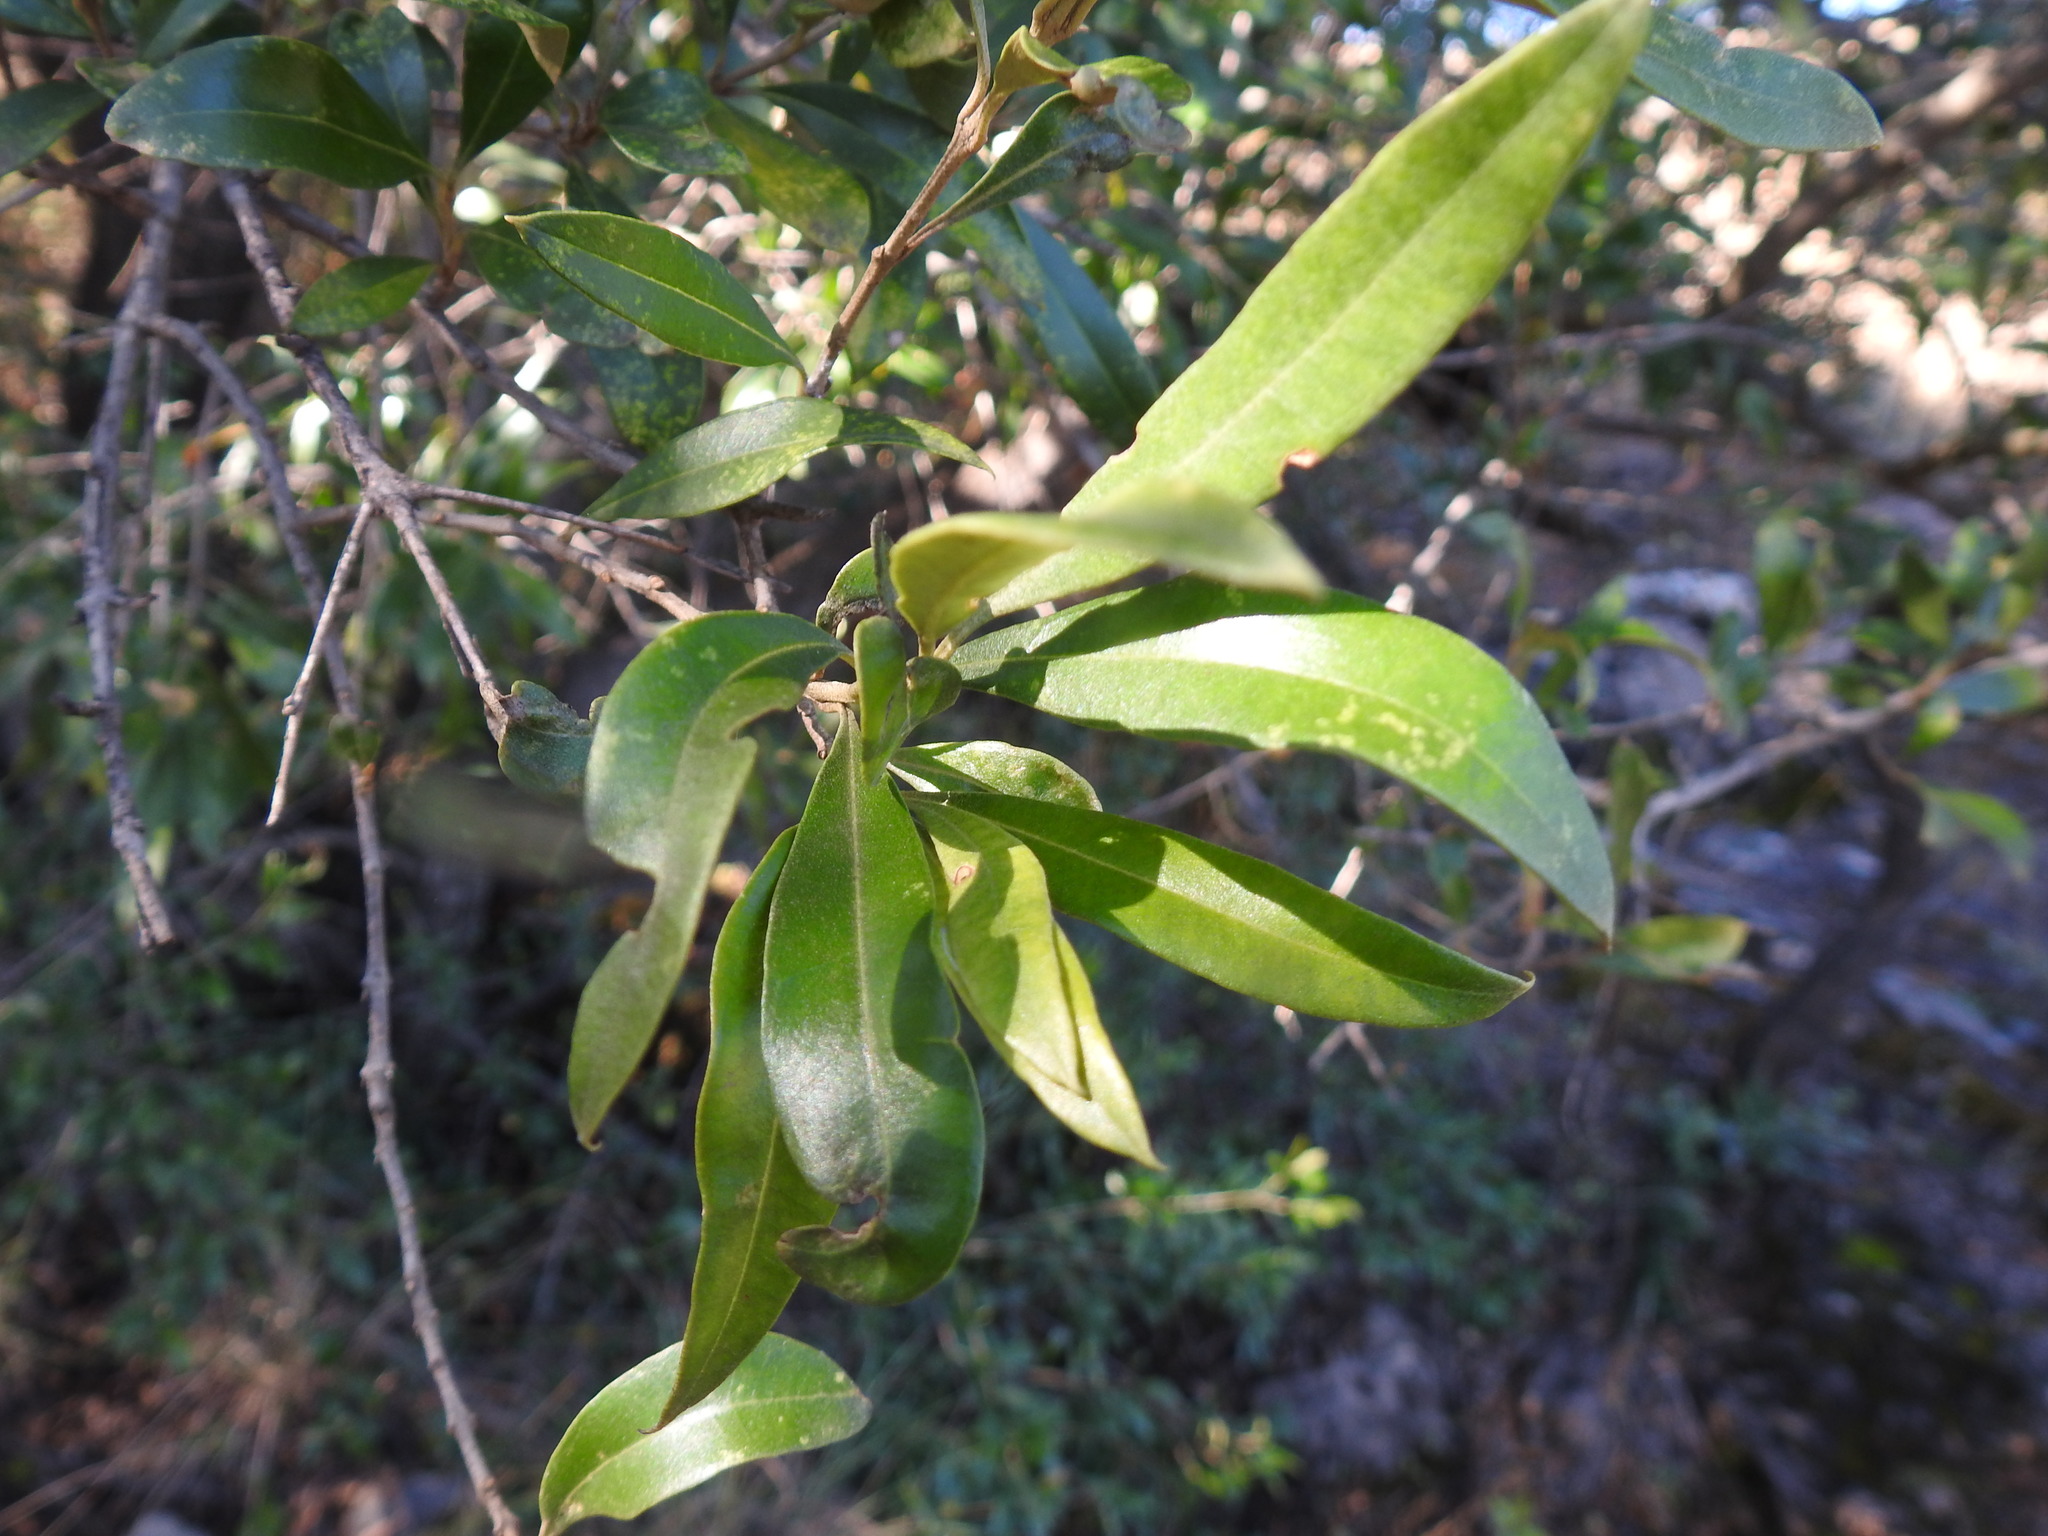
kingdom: Plantae
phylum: Tracheophyta
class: Magnoliopsida
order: Lamiales
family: Oleaceae
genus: Olea
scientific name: Olea europaea
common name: Olive
